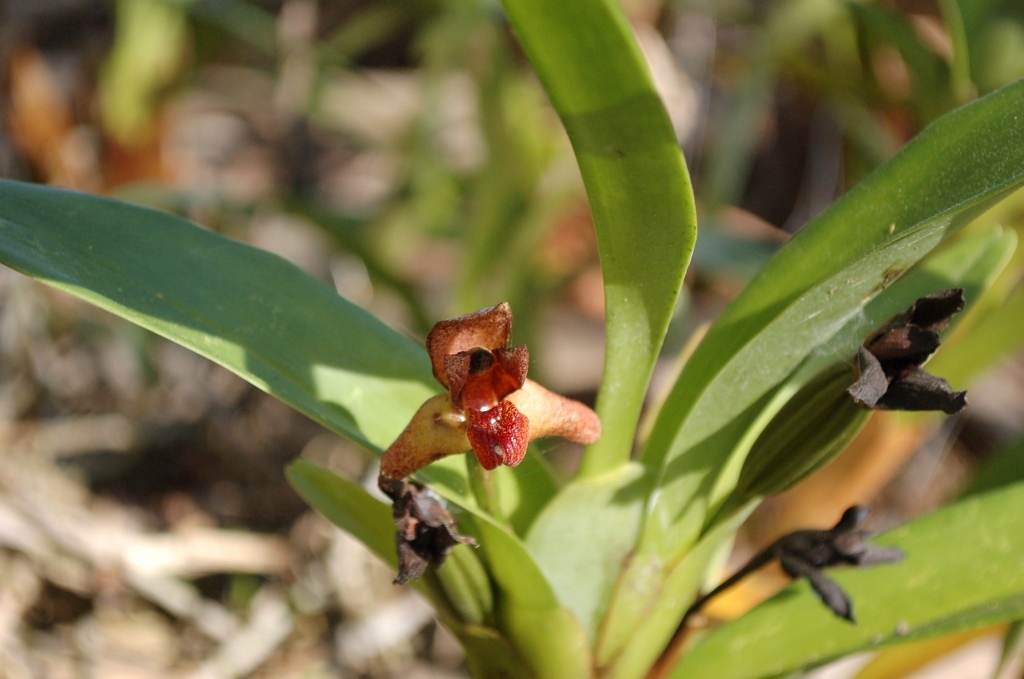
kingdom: Plantae
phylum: Tracheophyta
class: Liliopsida
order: Asparagales
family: Orchidaceae
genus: Maxillaria
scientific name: Maxillaria elatior
